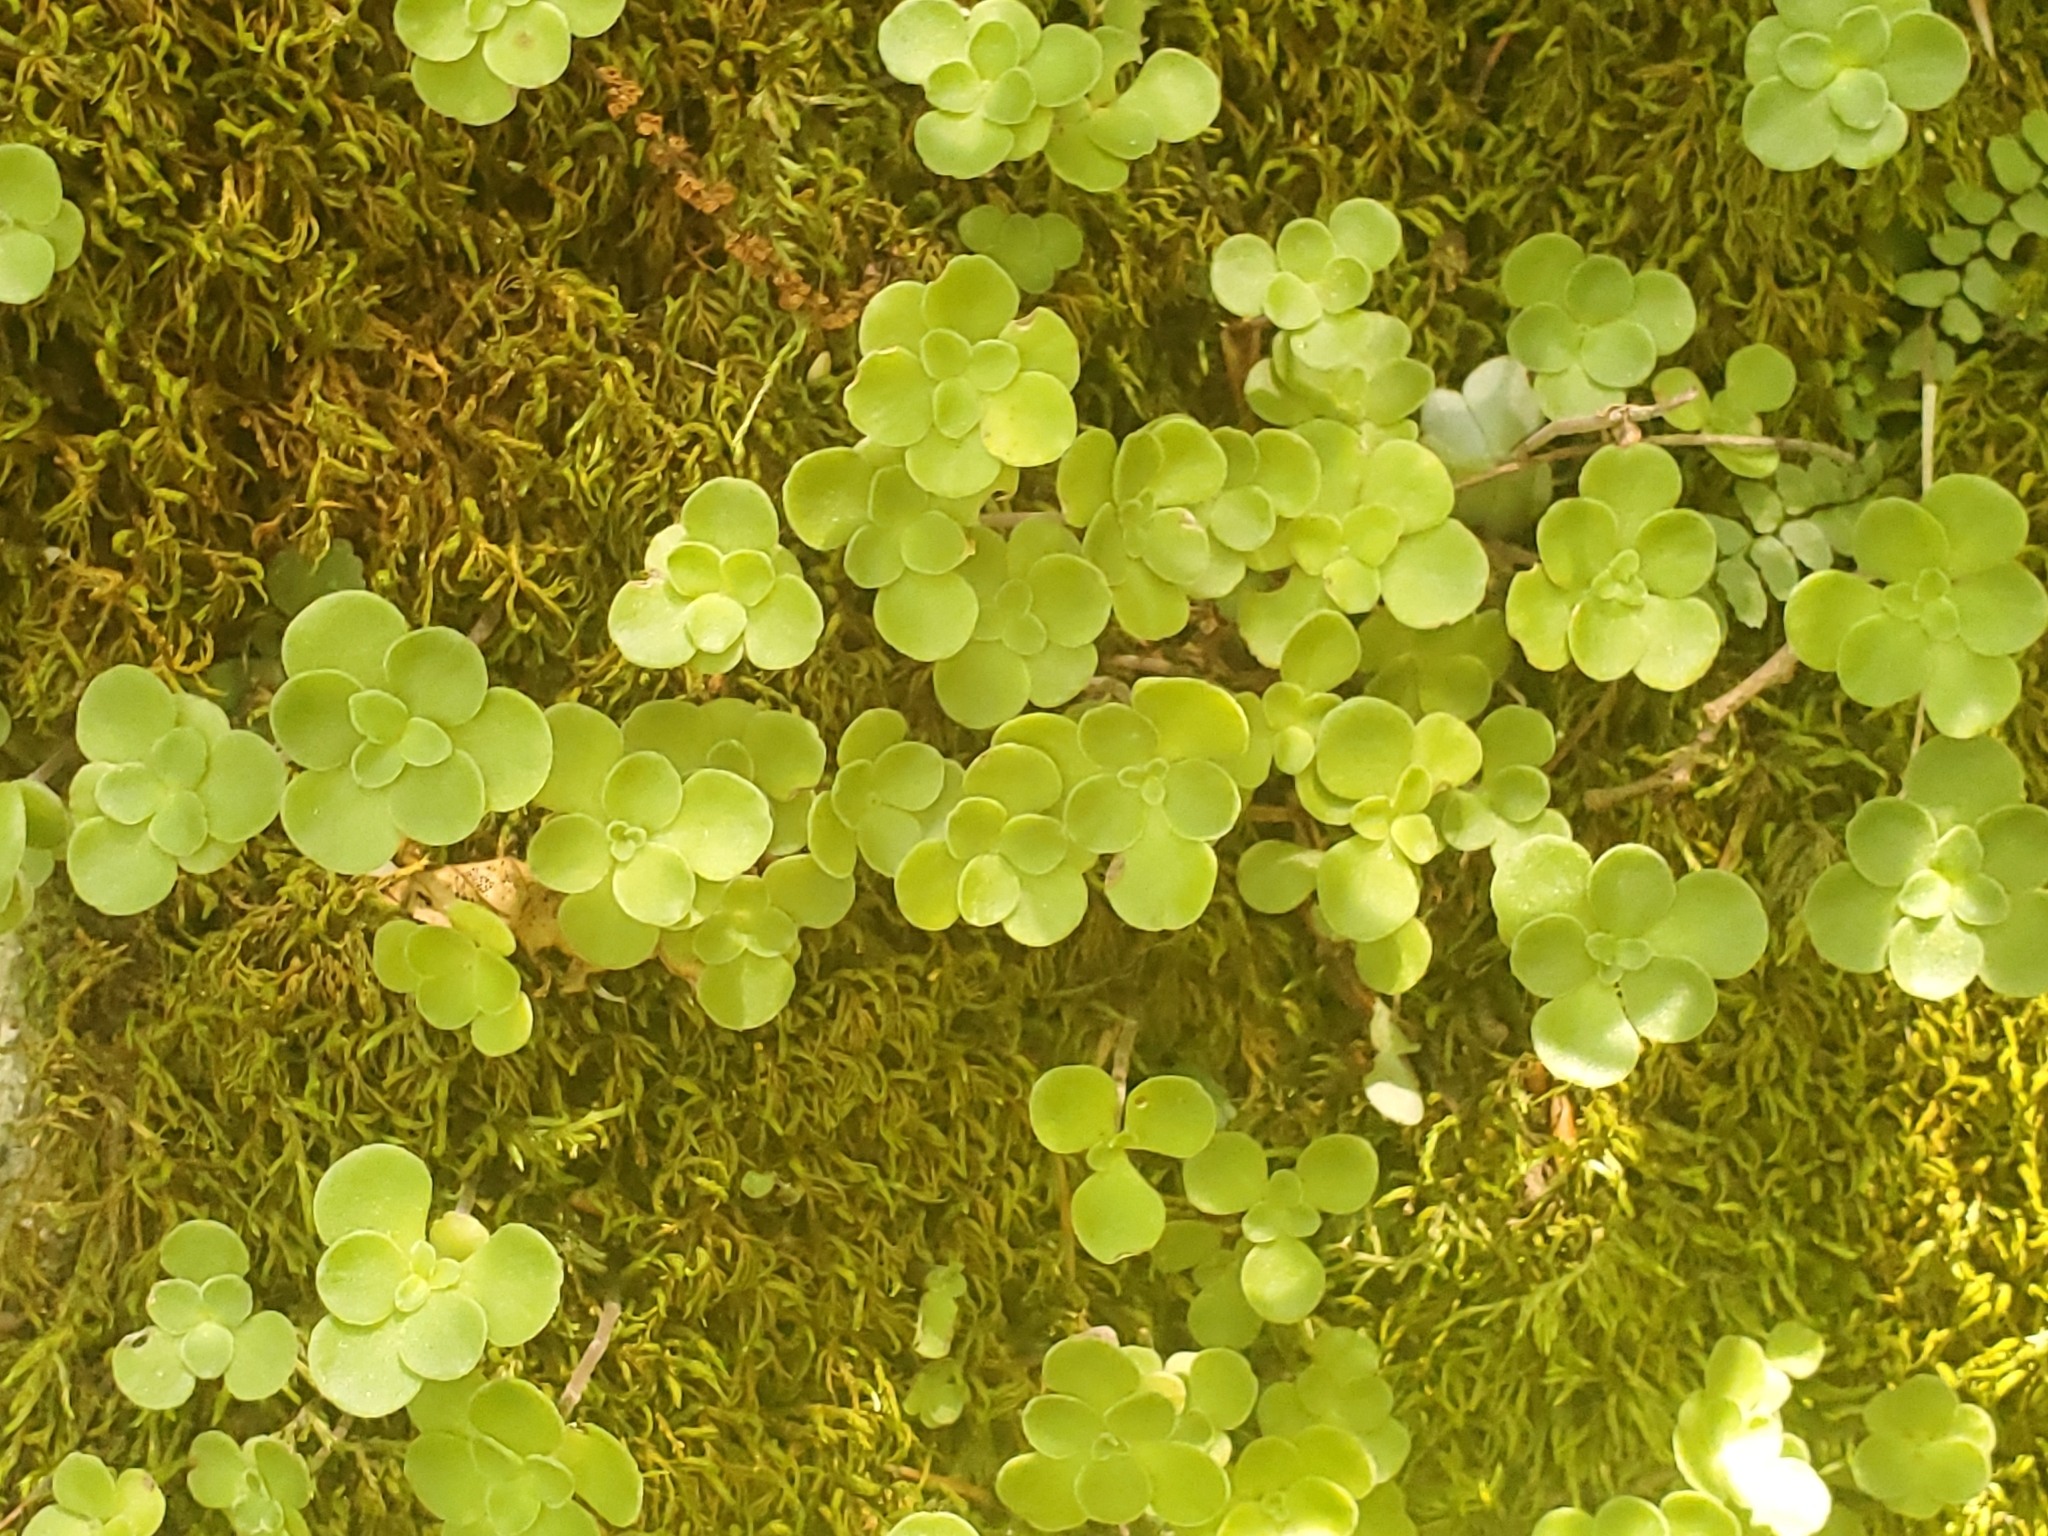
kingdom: Plantae
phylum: Tracheophyta
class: Magnoliopsida
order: Saxifragales
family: Crassulaceae
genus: Sedum
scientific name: Sedum ternatum
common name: Wild stonecrop
